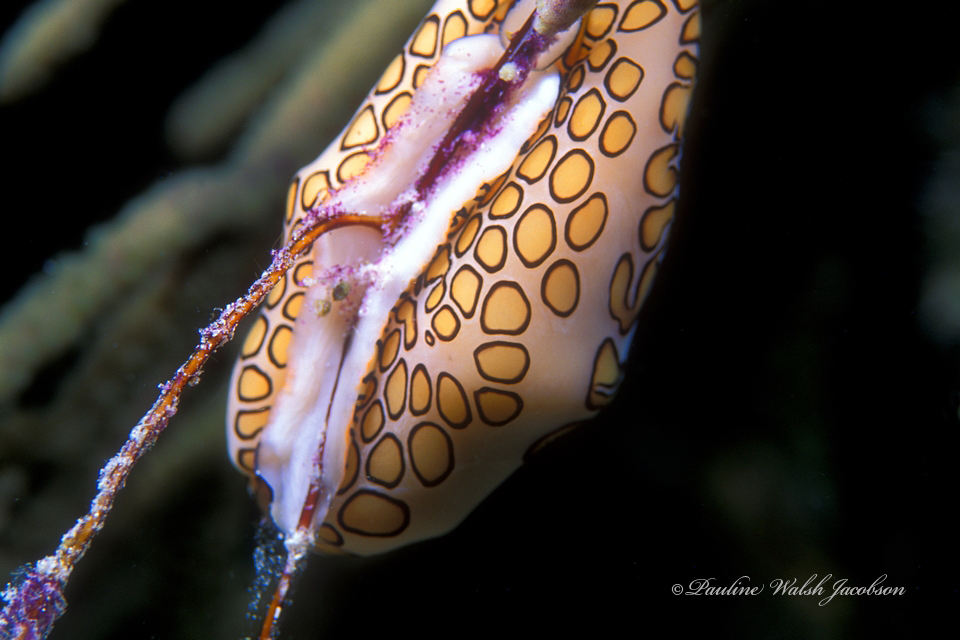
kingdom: Animalia
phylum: Mollusca
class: Gastropoda
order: Littorinimorpha
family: Ovulidae
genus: Cyphoma
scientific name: Cyphoma gibbosum
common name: Flamingo tongue
